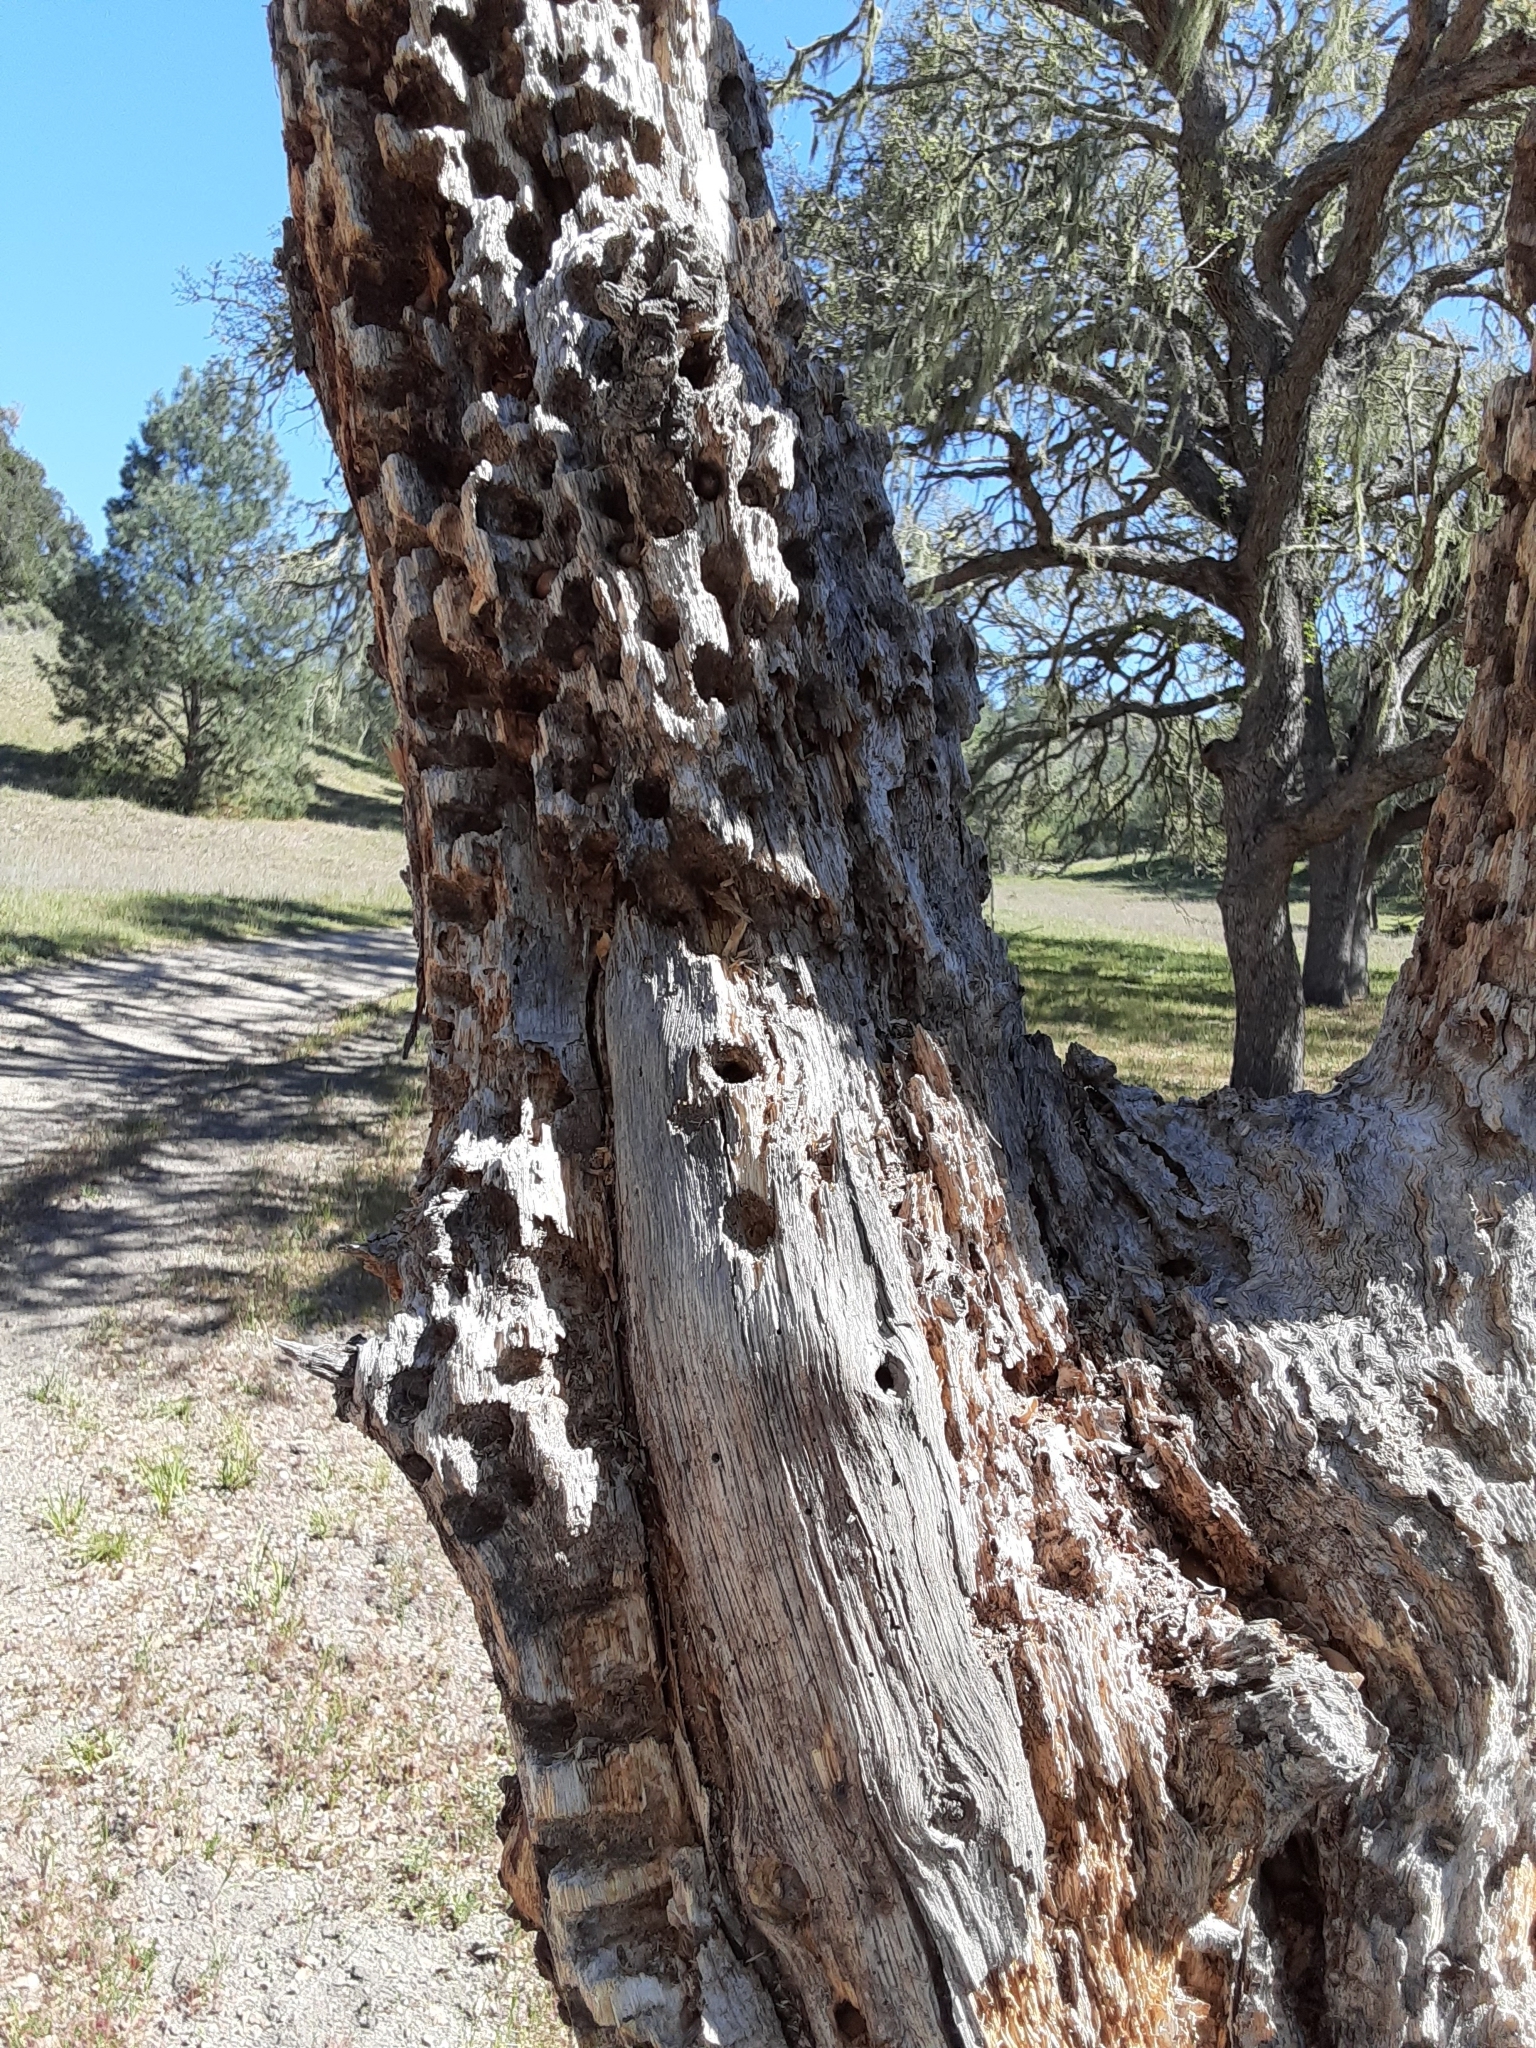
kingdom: Animalia
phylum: Chordata
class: Aves
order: Piciformes
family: Picidae
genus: Melanerpes
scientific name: Melanerpes formicivorus
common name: Acorn woodpecker
